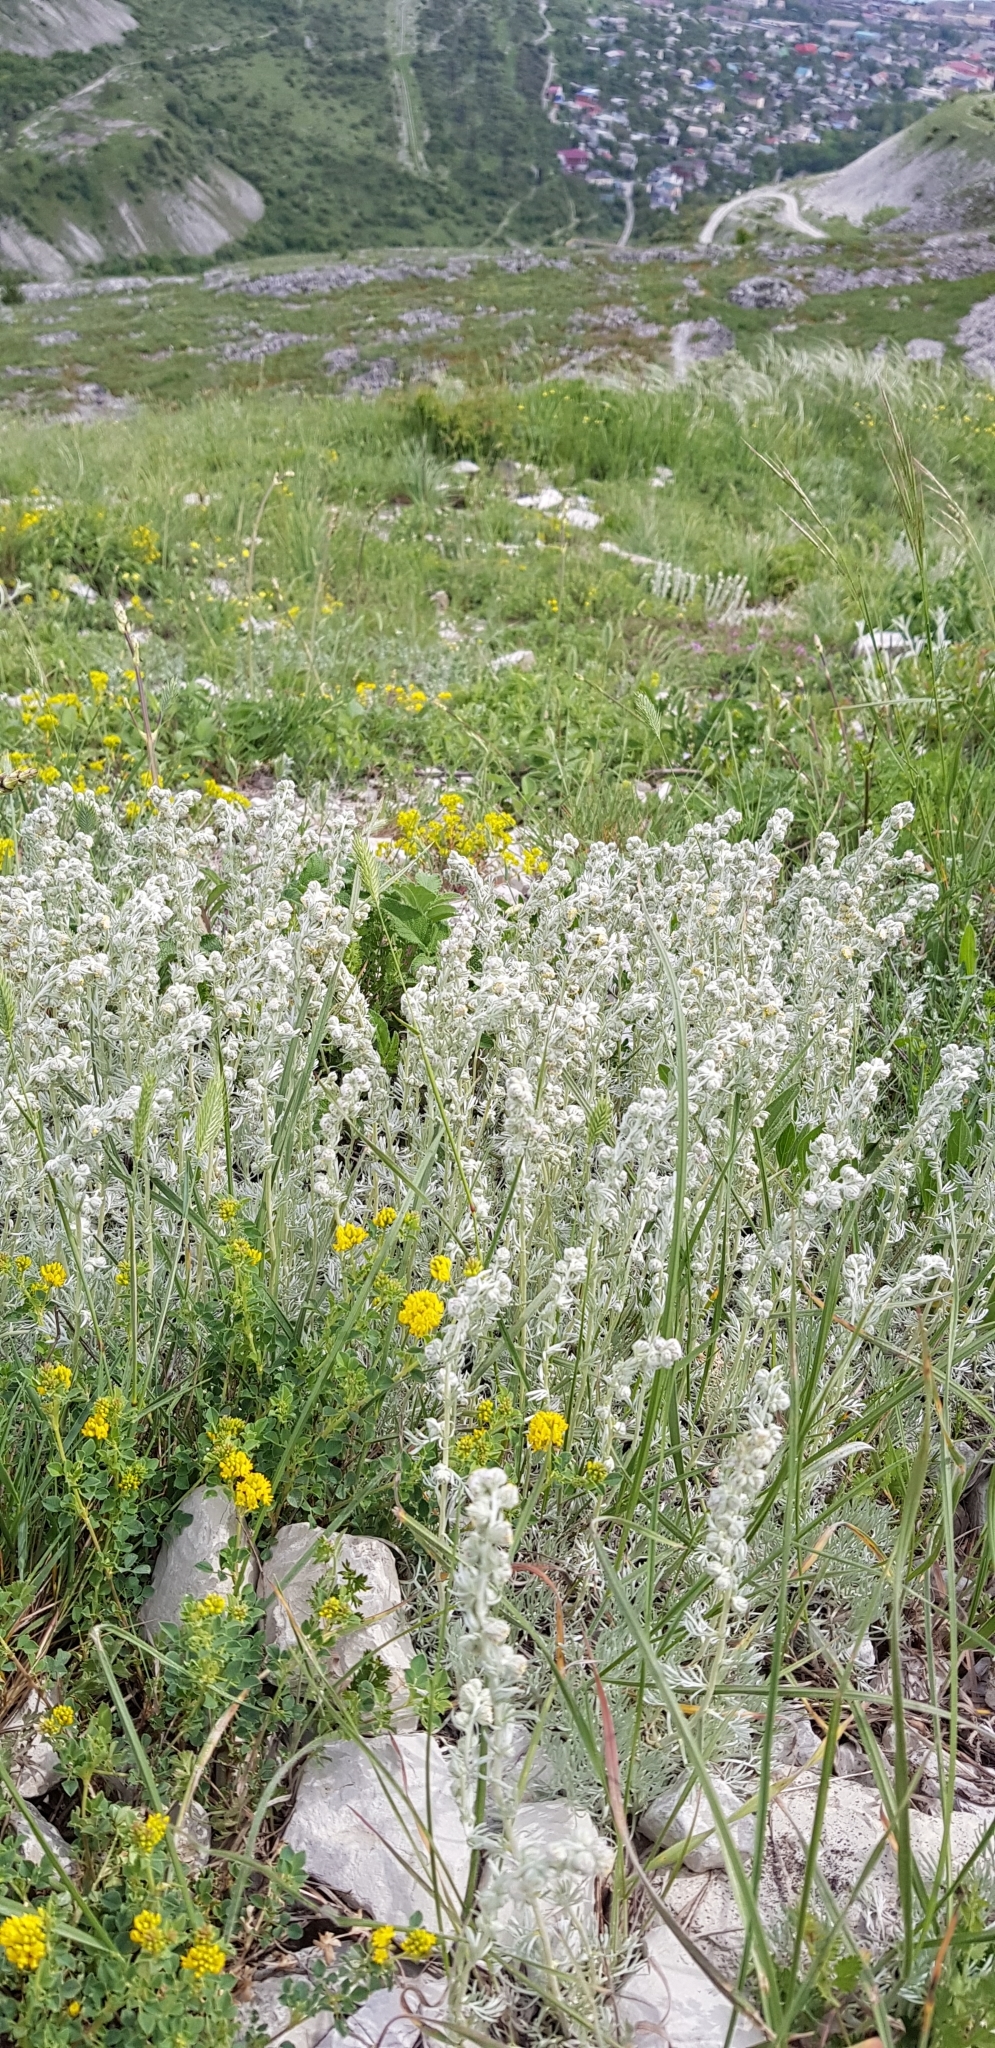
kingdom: Plantae
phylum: Tracheophyta
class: Magnoliopsida
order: Asterales
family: Asteraceae
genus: Artemisia
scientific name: Artemisia alpina
